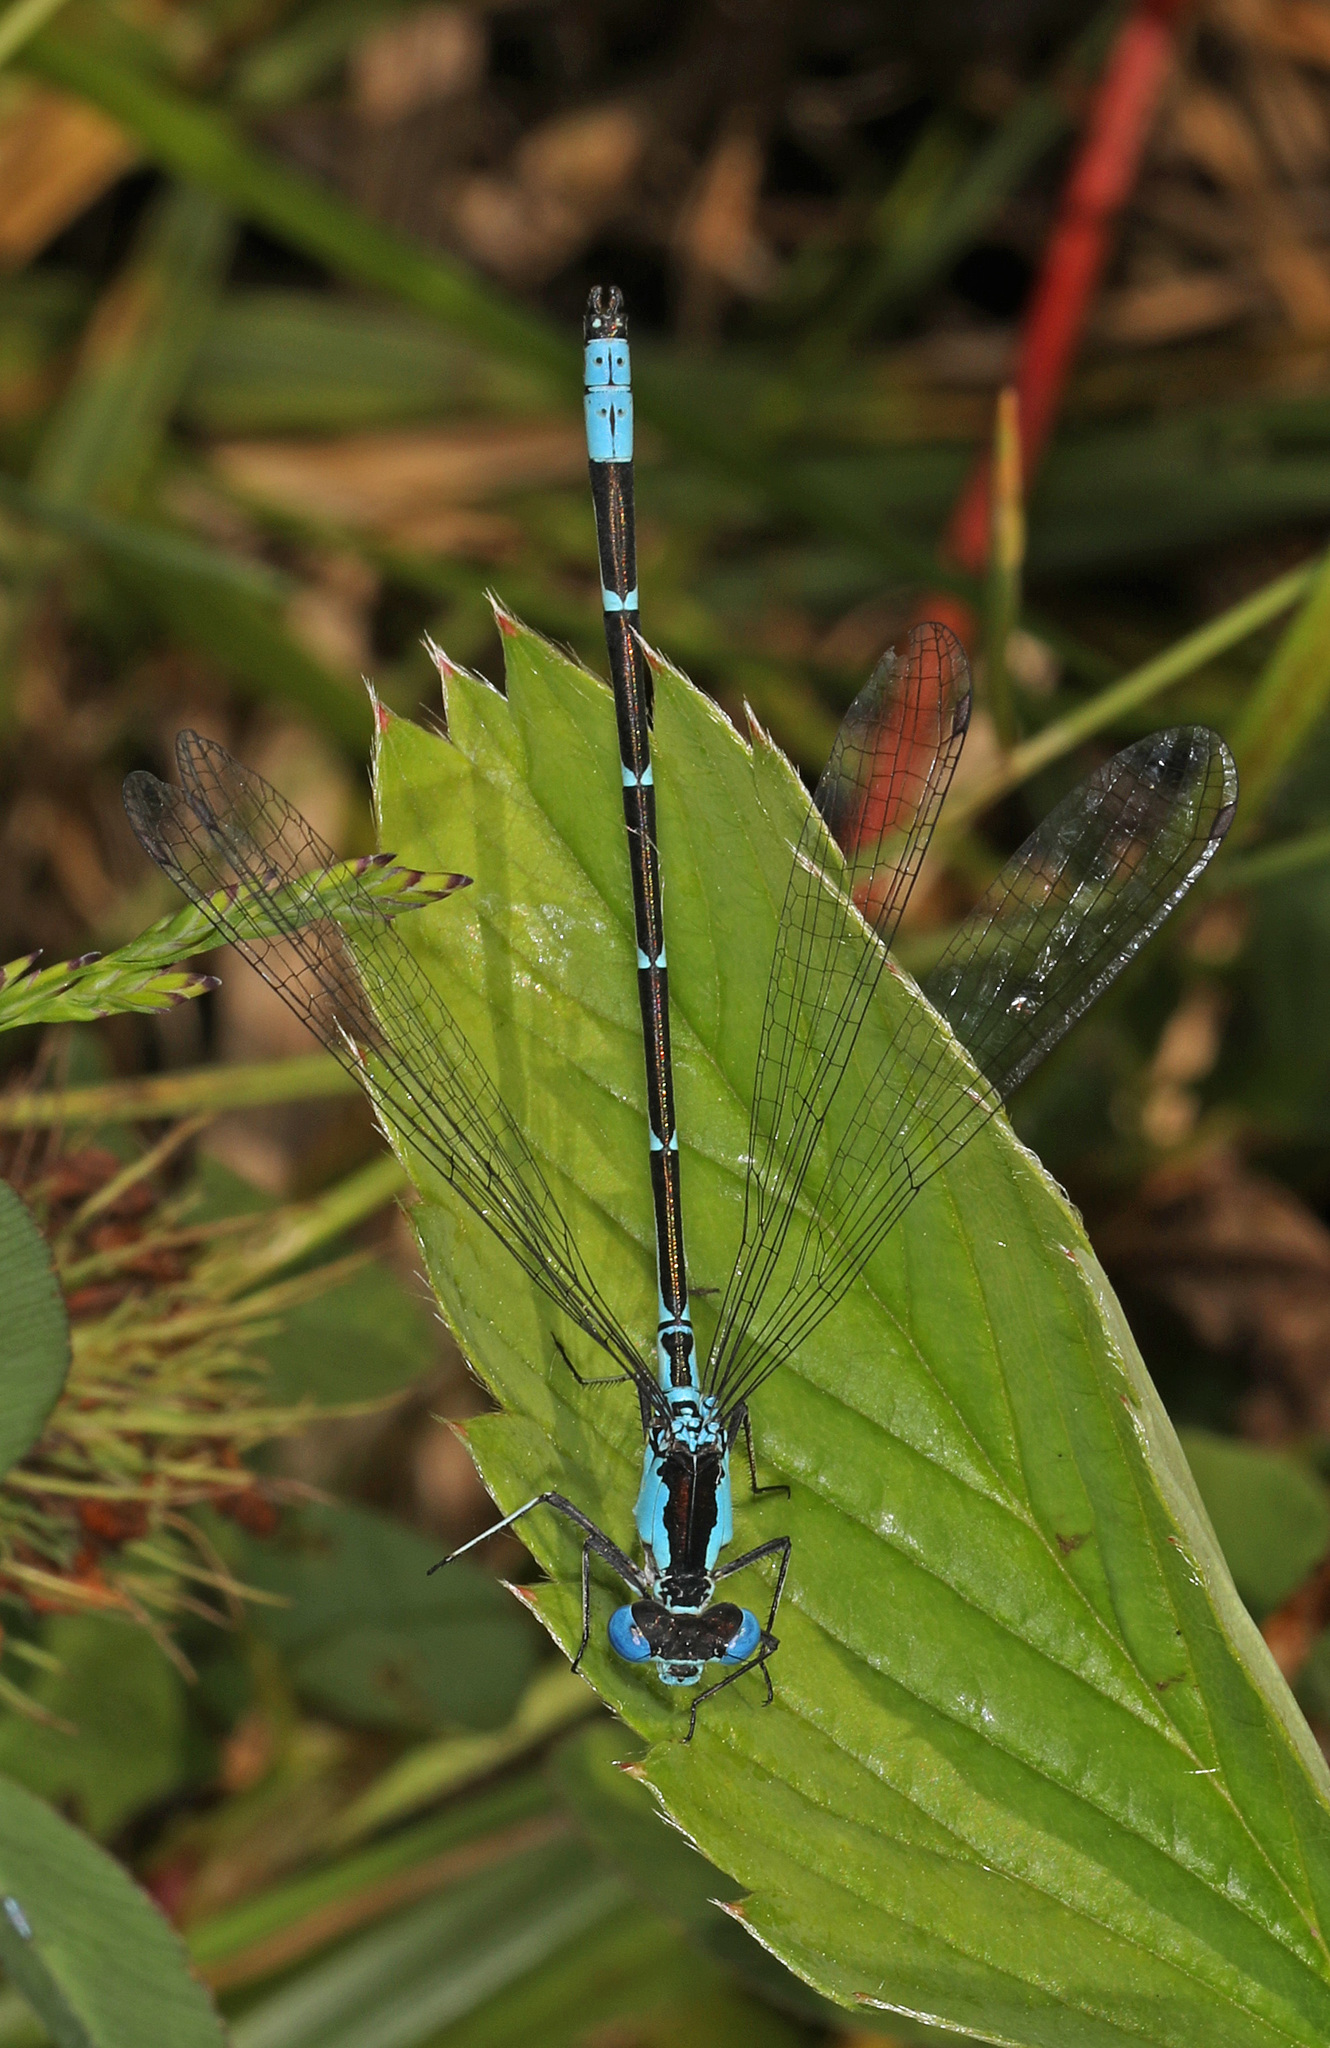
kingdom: Animalia
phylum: Arthropoda
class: Insecta
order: Odonata
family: Coenagrionidae
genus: Chromagrion
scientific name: Chromagrion conditum
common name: Aurora damsel
